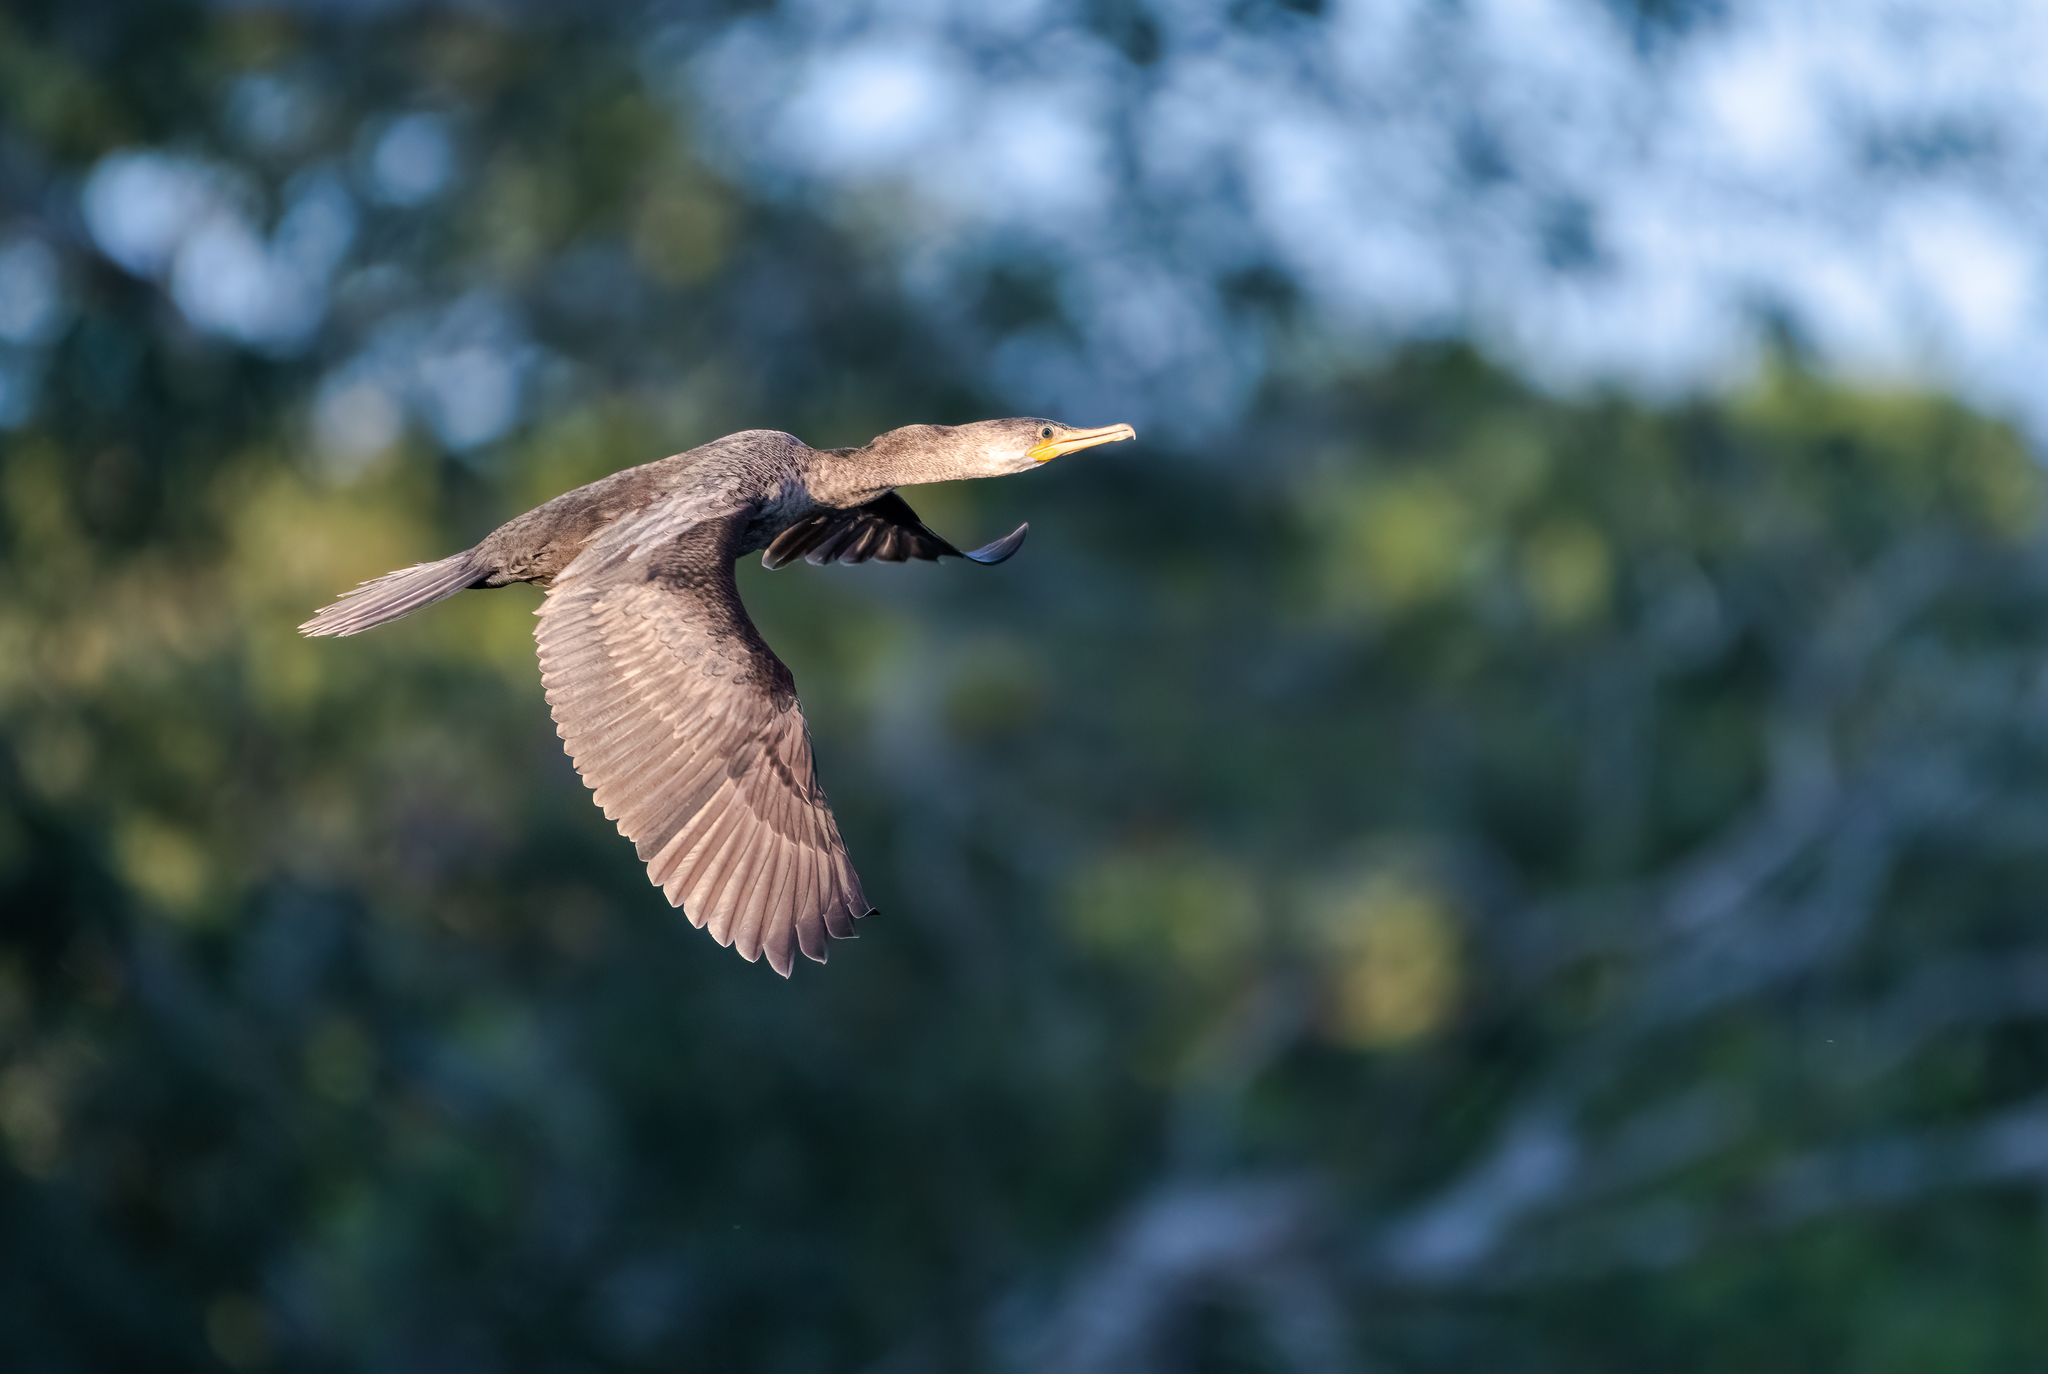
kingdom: Animalia
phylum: Chordata
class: Aves
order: Suliformes
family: Phalacrocoracidae
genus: Phalacrocorax
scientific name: Phalacrocorax brasilianus
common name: Neotropic cormorant
